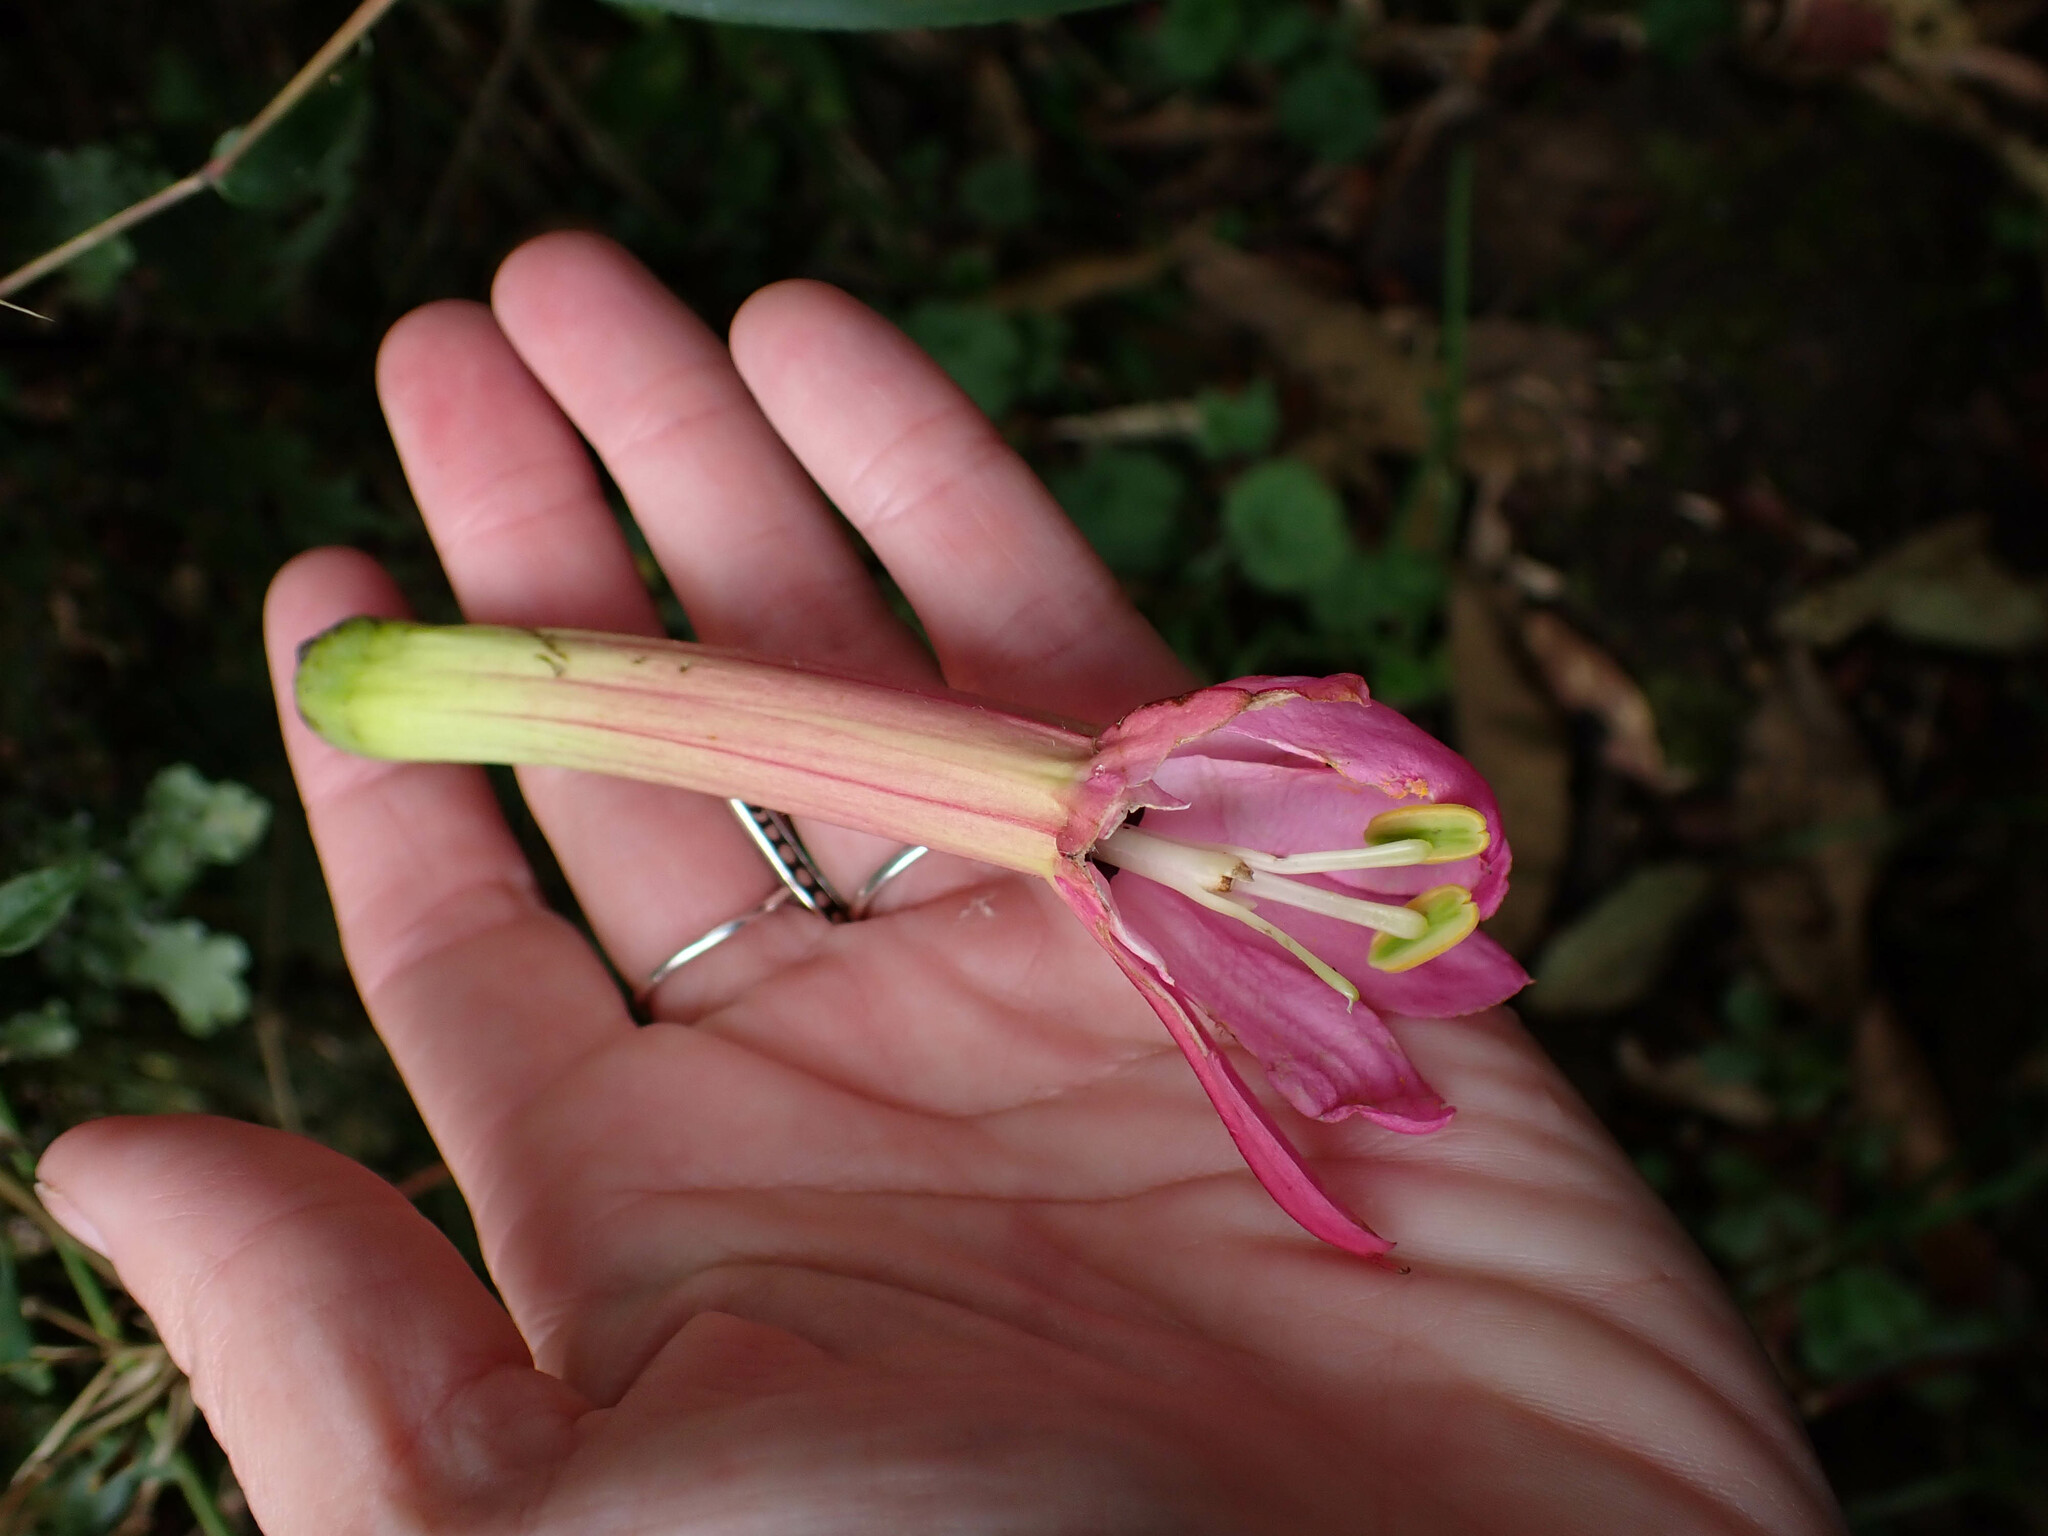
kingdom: Plantae
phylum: Tracheophyta
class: Magnoliopsida
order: Malpighiales
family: Passifloraceae
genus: Passiflora
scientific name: Passiflora lanata
